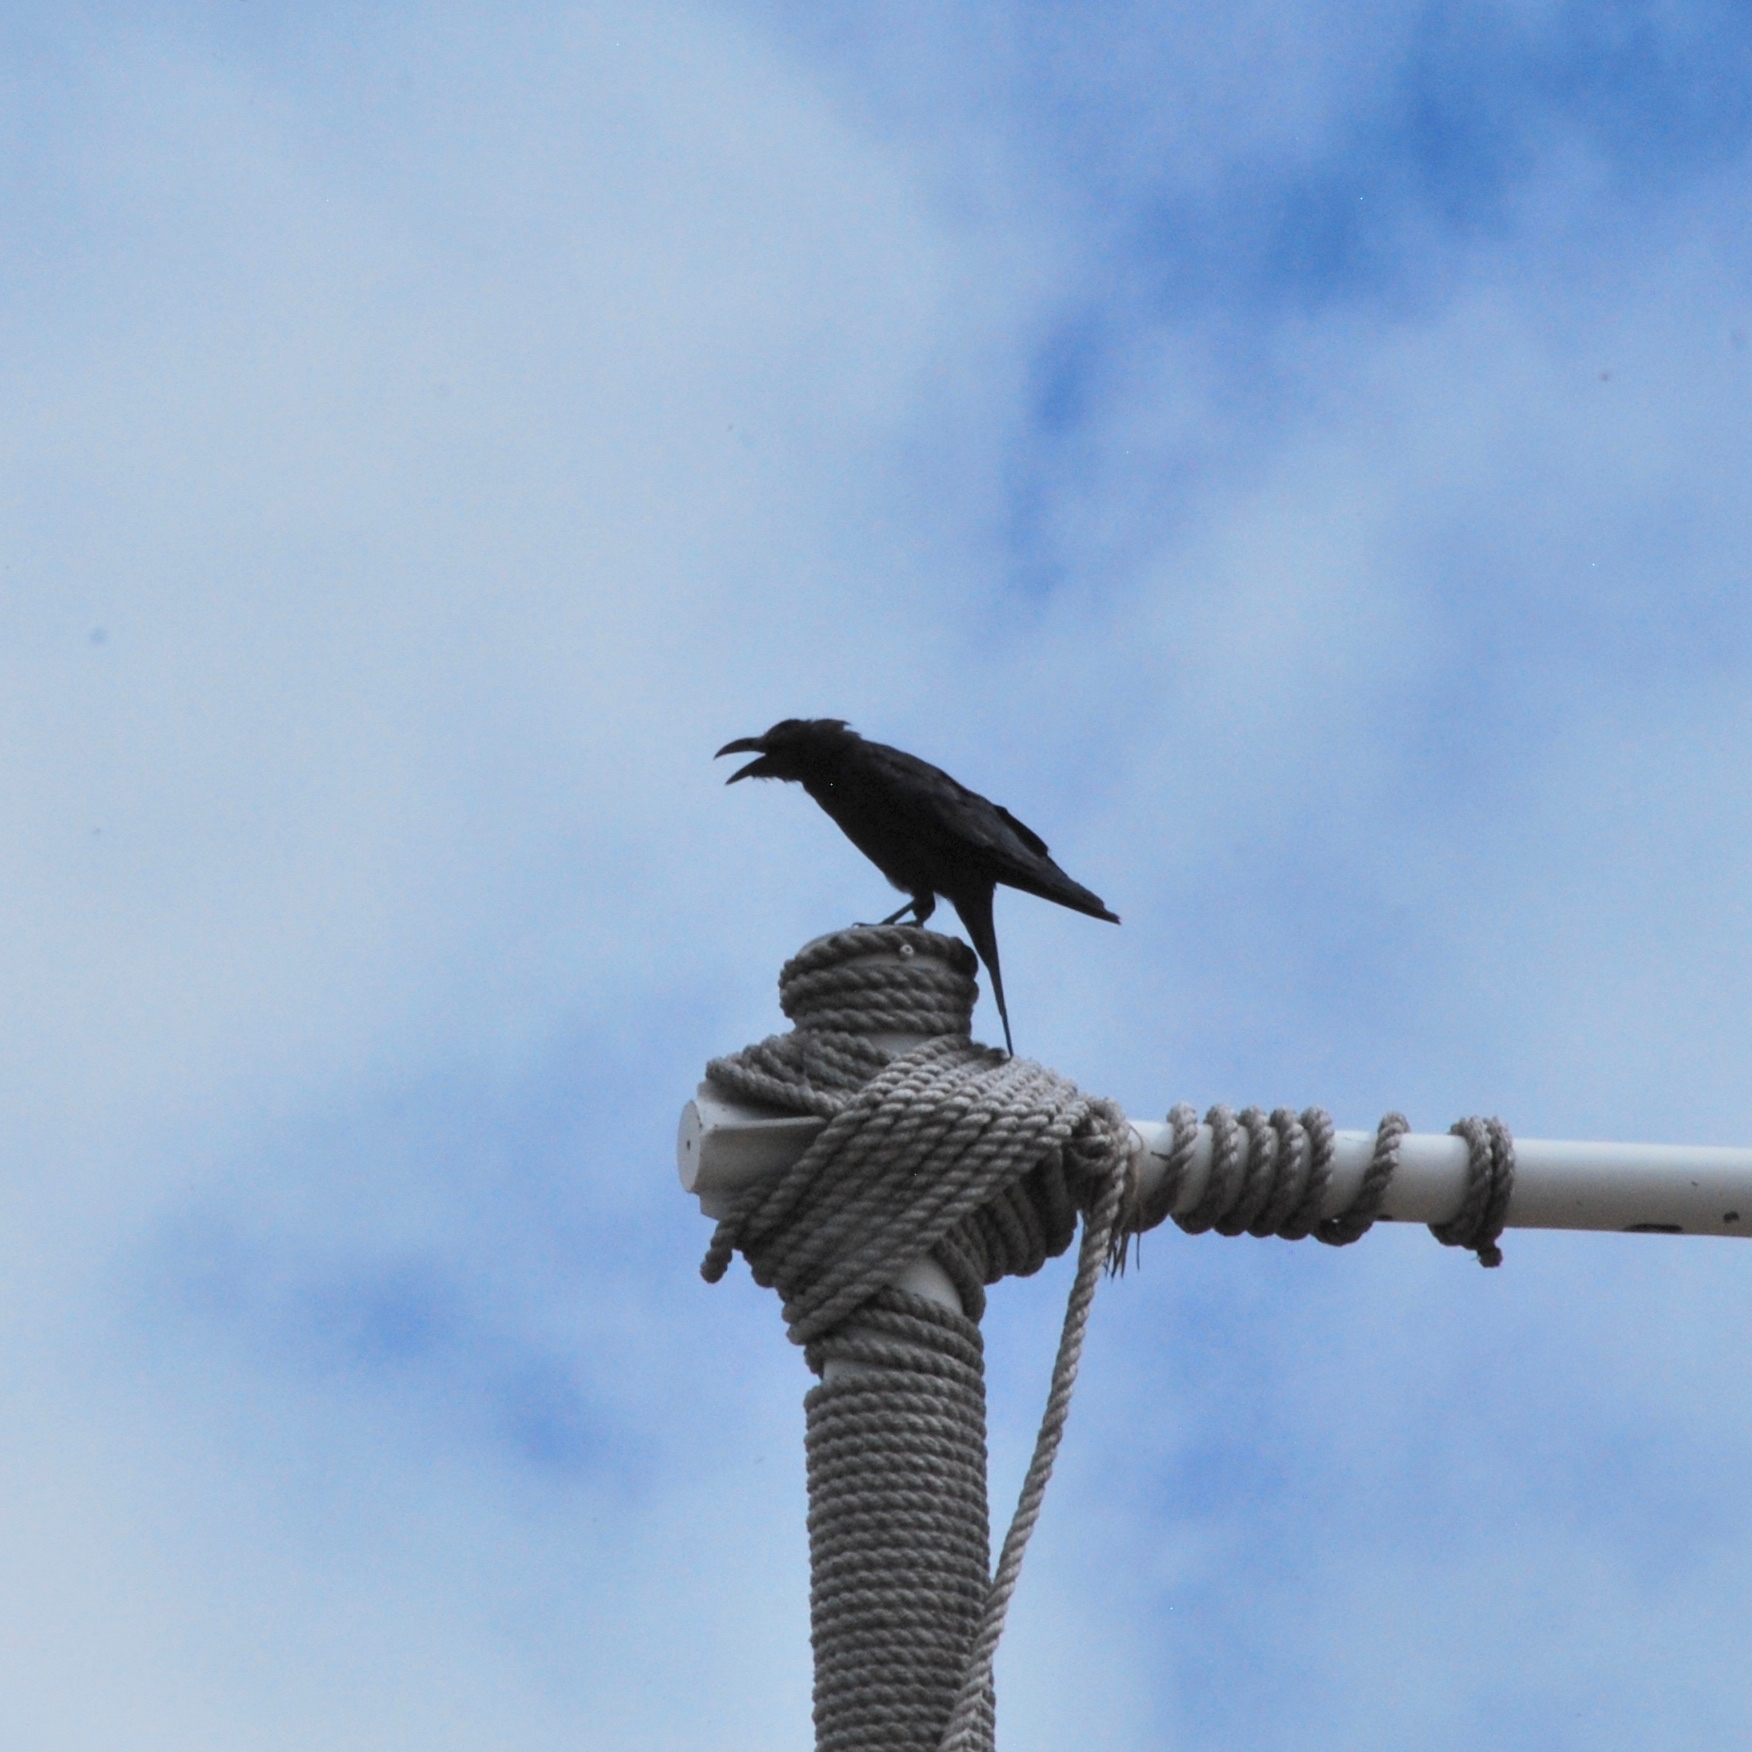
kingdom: Animalia
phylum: Chordata
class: Aves
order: Passeriformes
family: Corvidae
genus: Corvus
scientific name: Corvus macrorhynchos
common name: Large-billed crow
